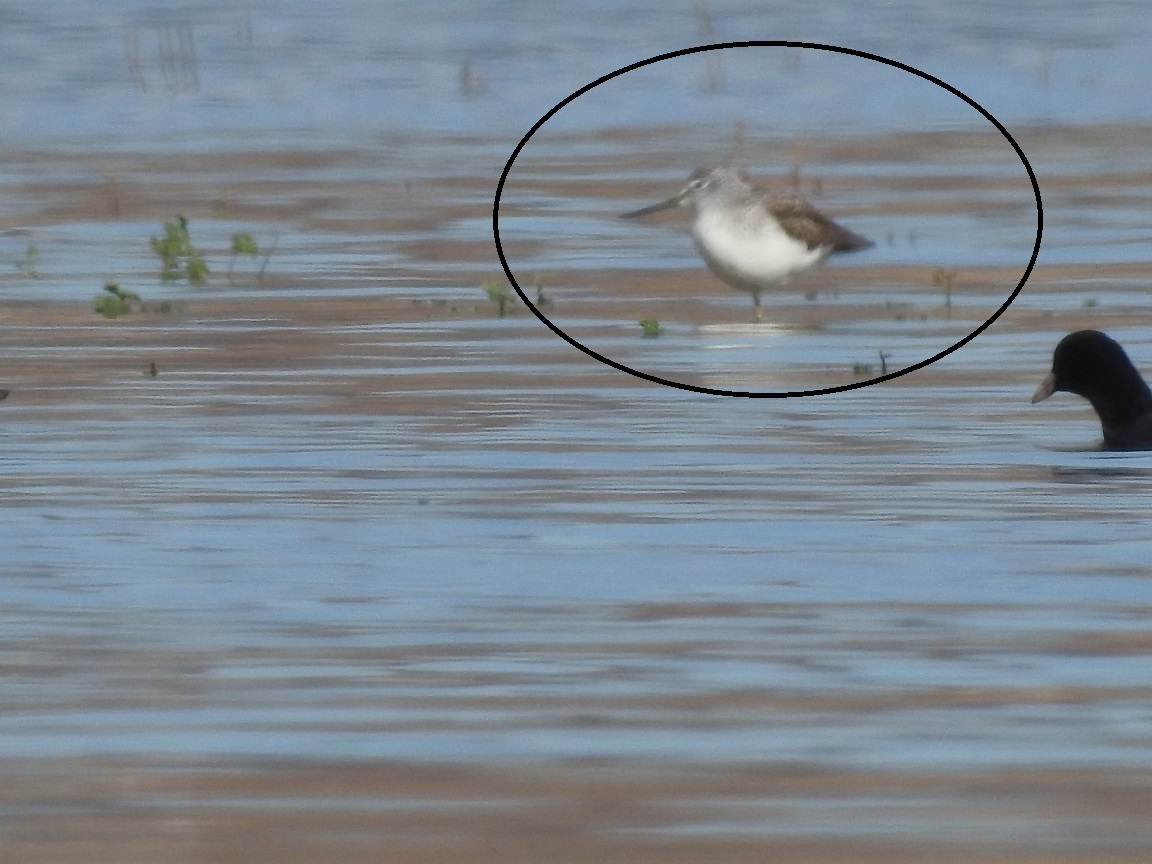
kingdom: Animalia
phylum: Chordata
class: Aves
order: Charadriiformes
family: Scolopacidae
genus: Tringa
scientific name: Tringa nebularia
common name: Common greenshank
